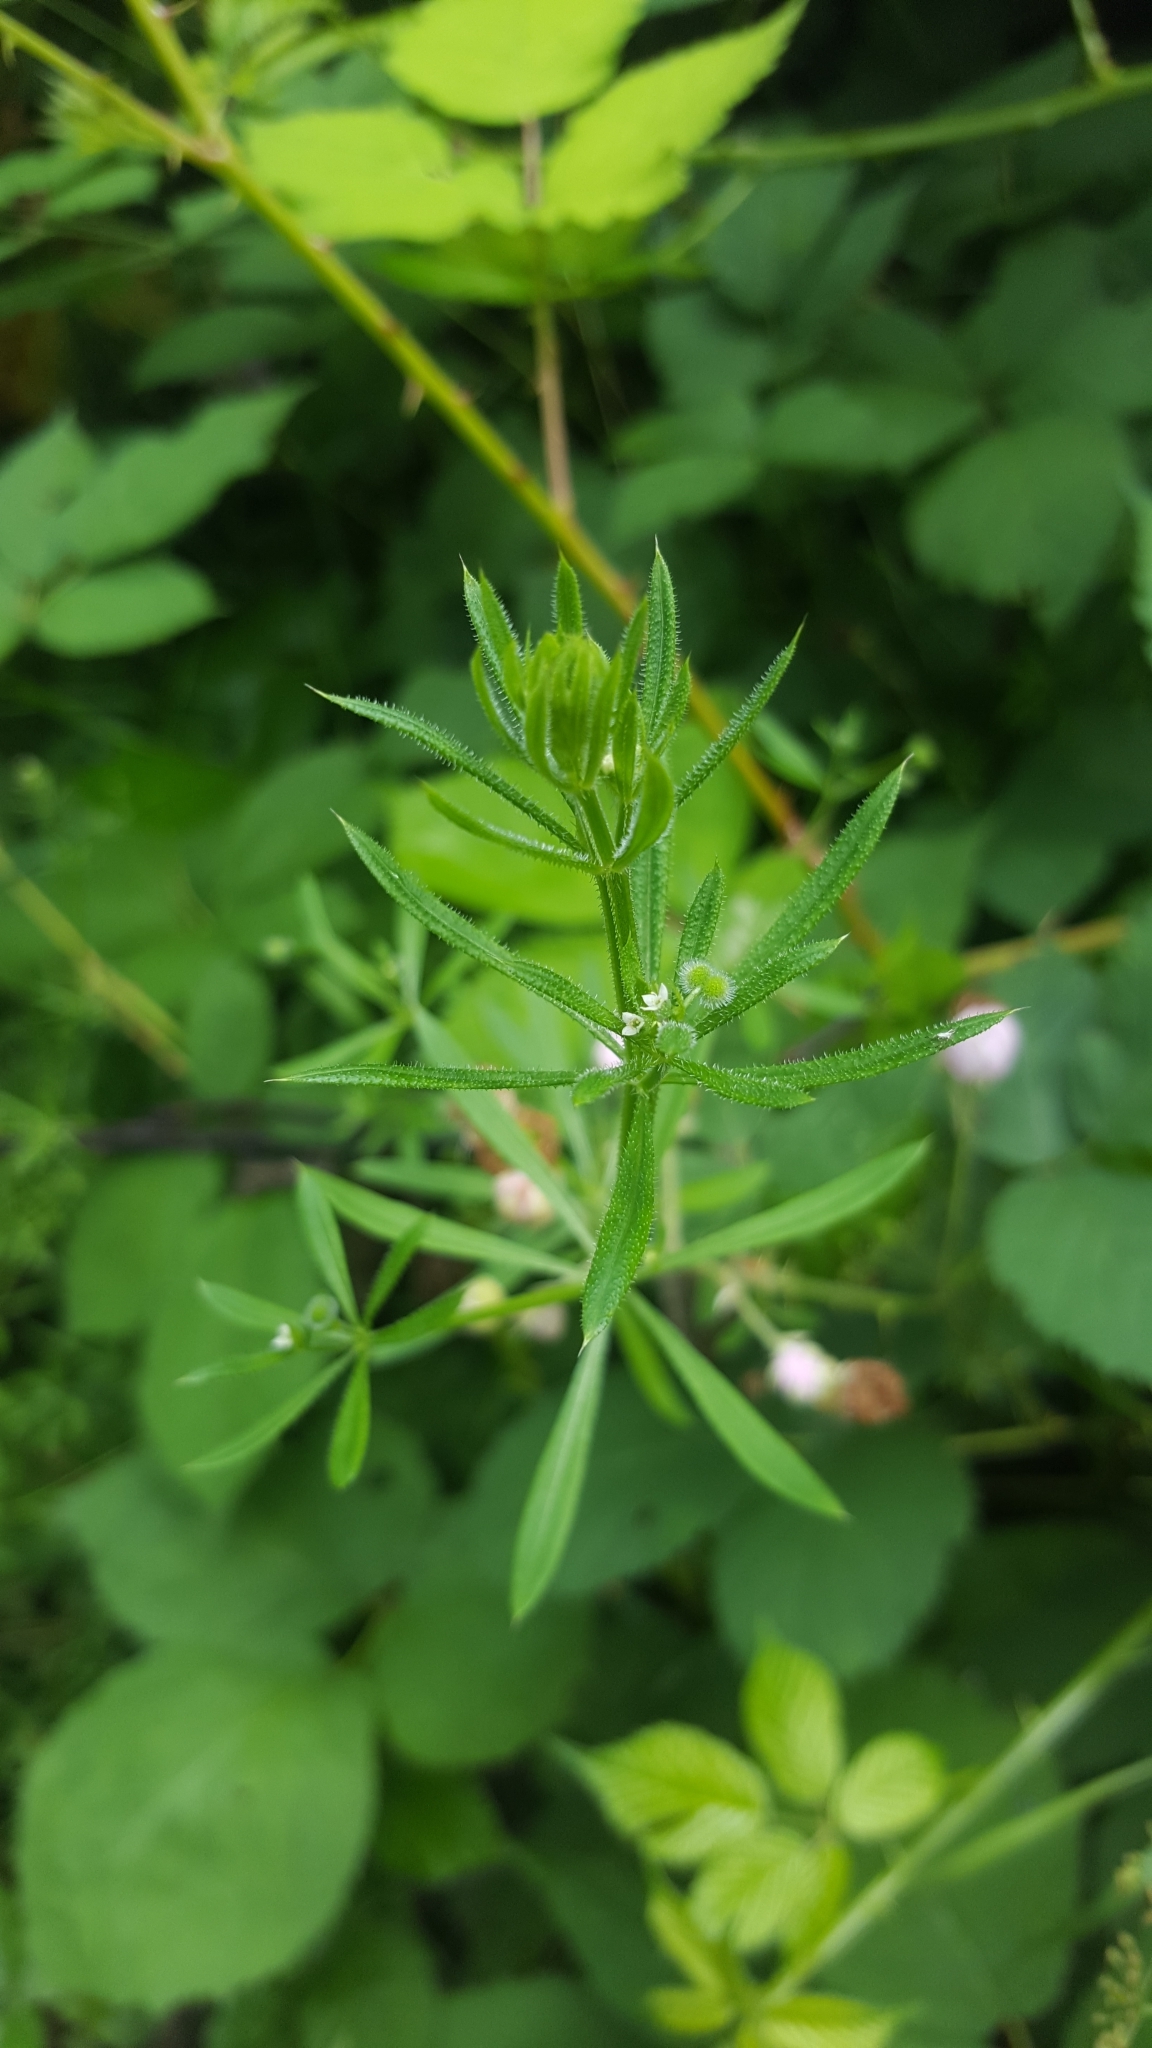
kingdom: Plantae
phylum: Tracheophyta
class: Magnoliopsida
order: Gentianales
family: Rubiaceae
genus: Galium
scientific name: Galium aparine
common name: Cleavers
